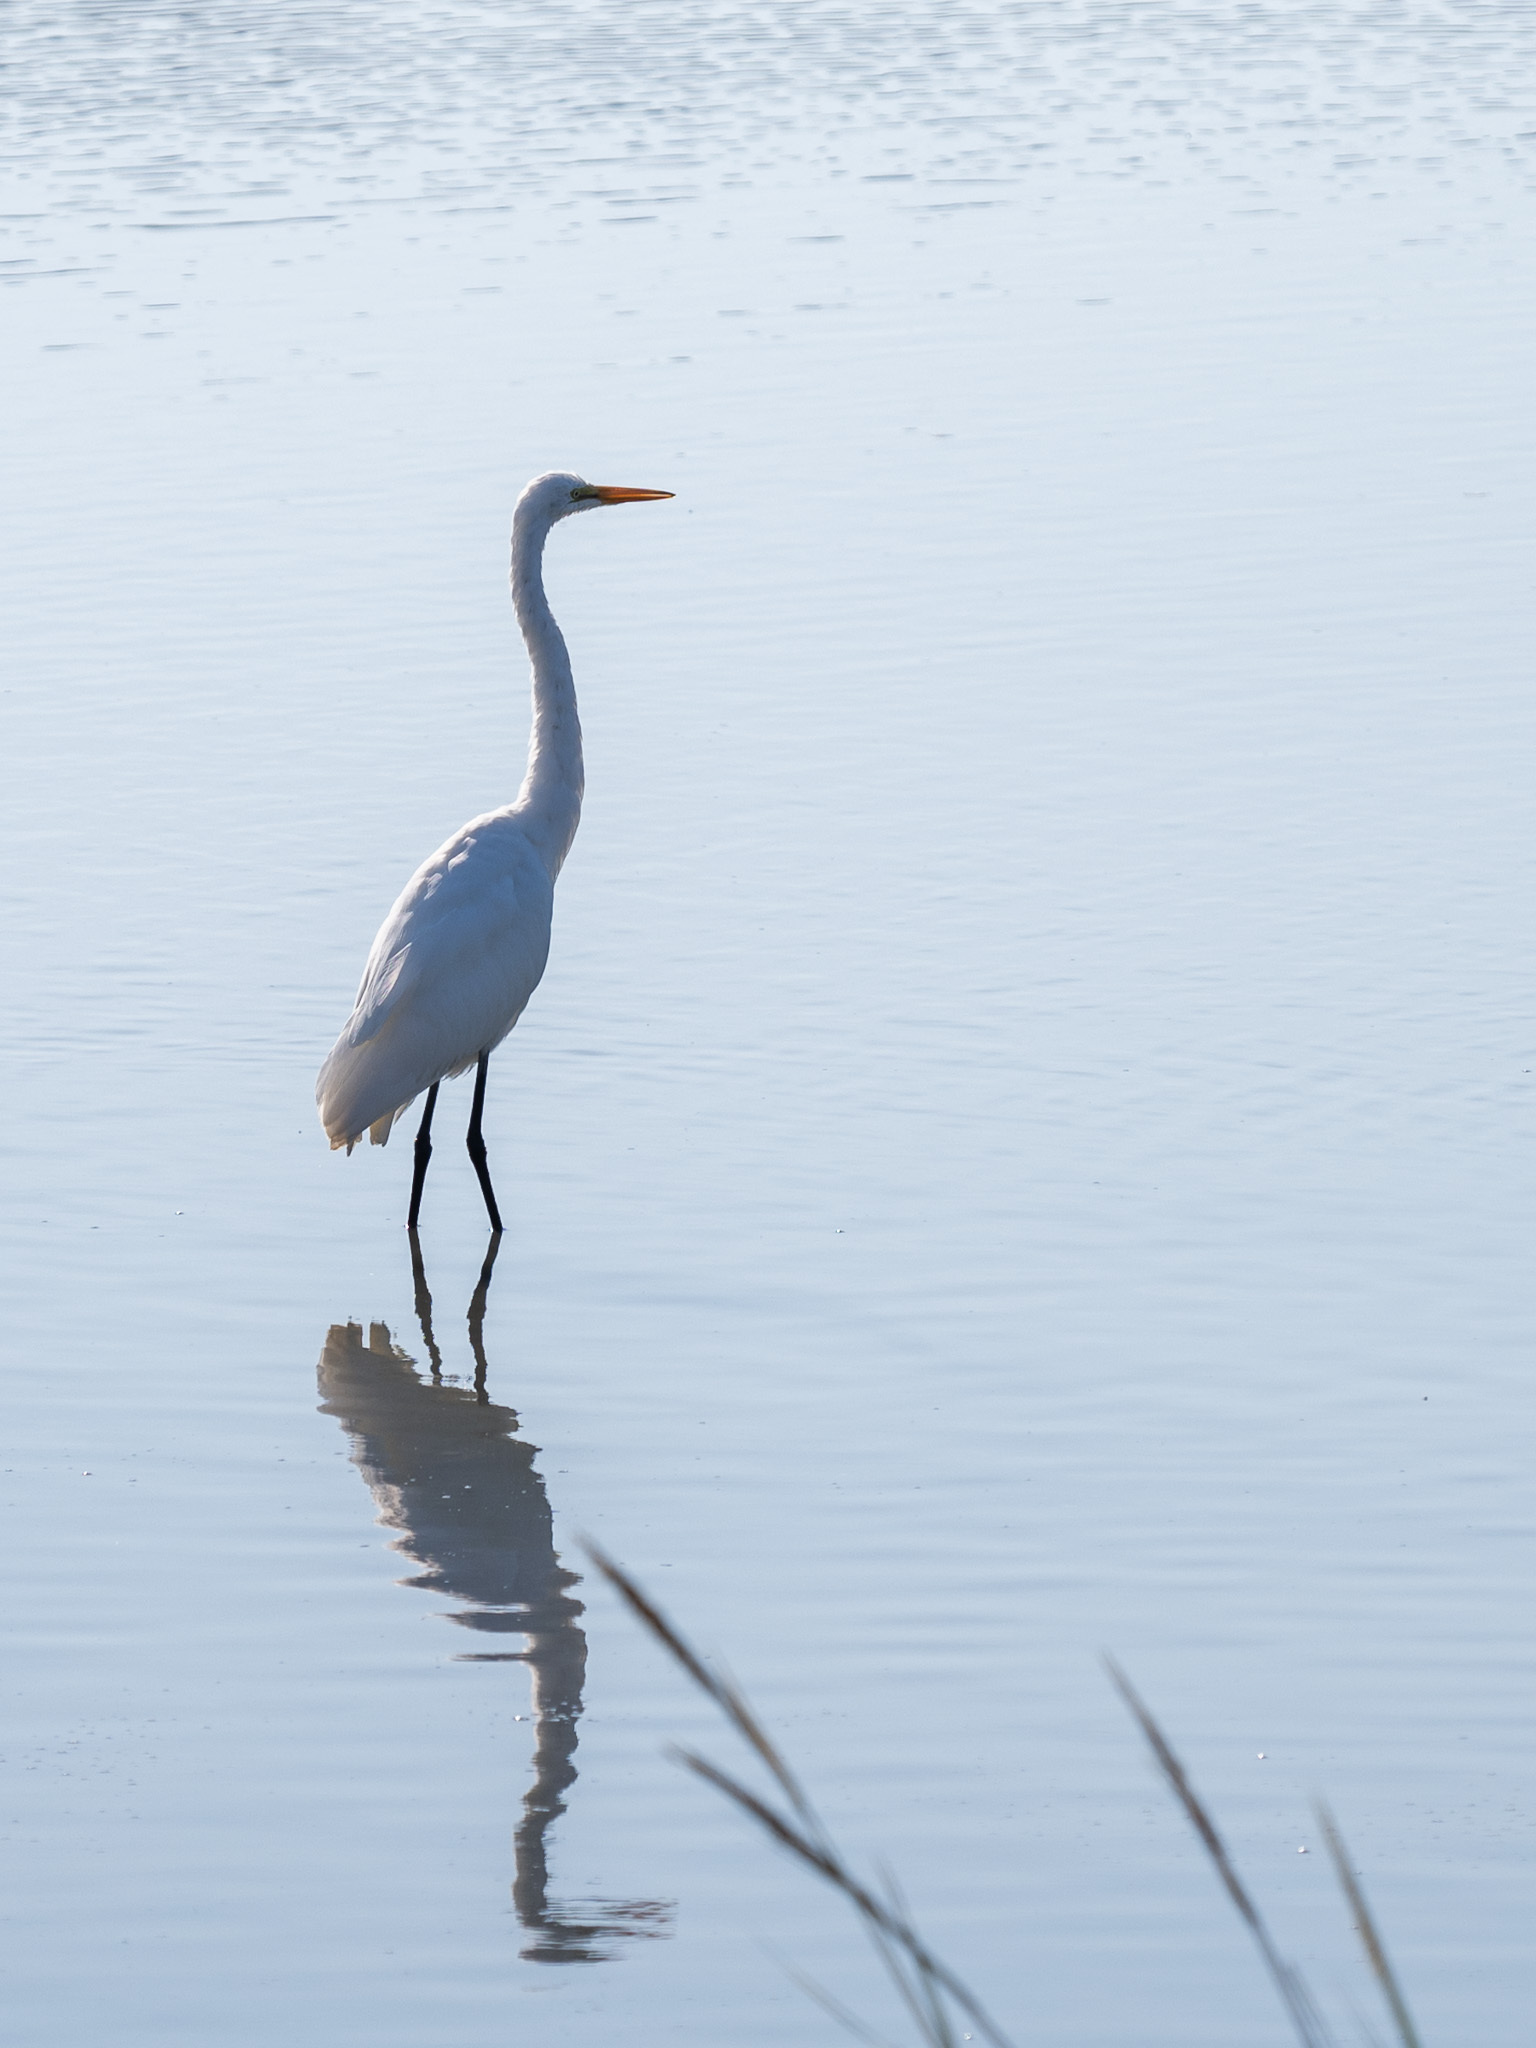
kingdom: Animalia
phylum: Chordata
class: Aves
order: Pelecaniformes
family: Ardeidae
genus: Ardea
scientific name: Ardea alba
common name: Great egret
